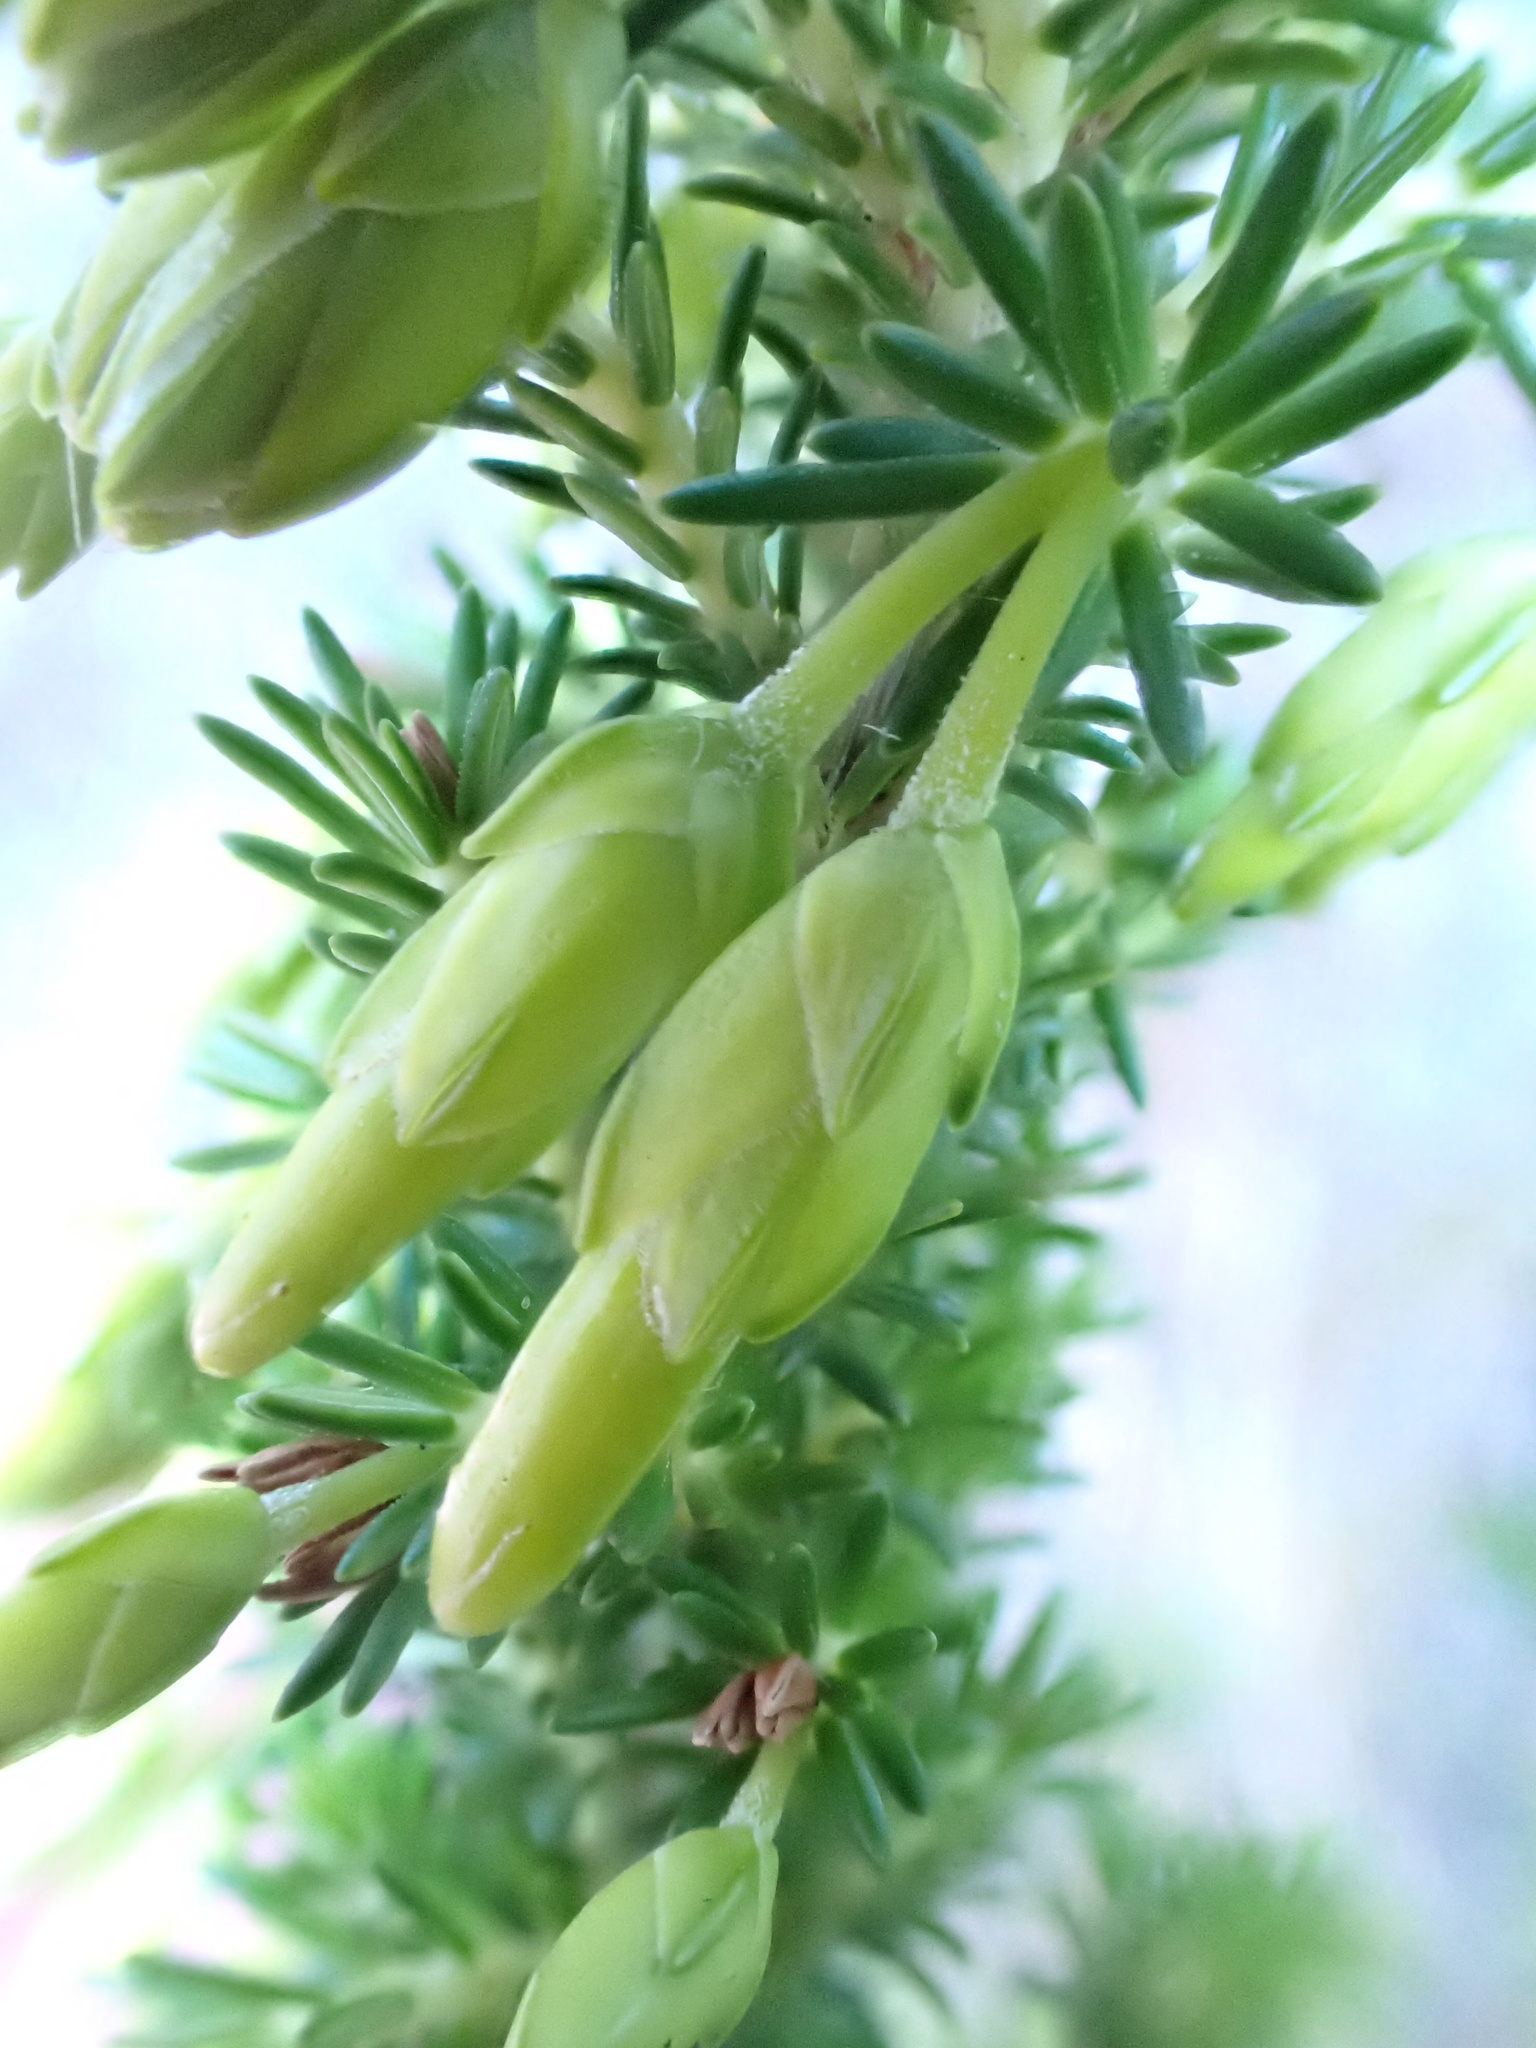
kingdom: Plantae
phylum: Tracheophyta
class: Magnoliopsida
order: Ericales
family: Ericaceae
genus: Erica
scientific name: Erica coccinea
